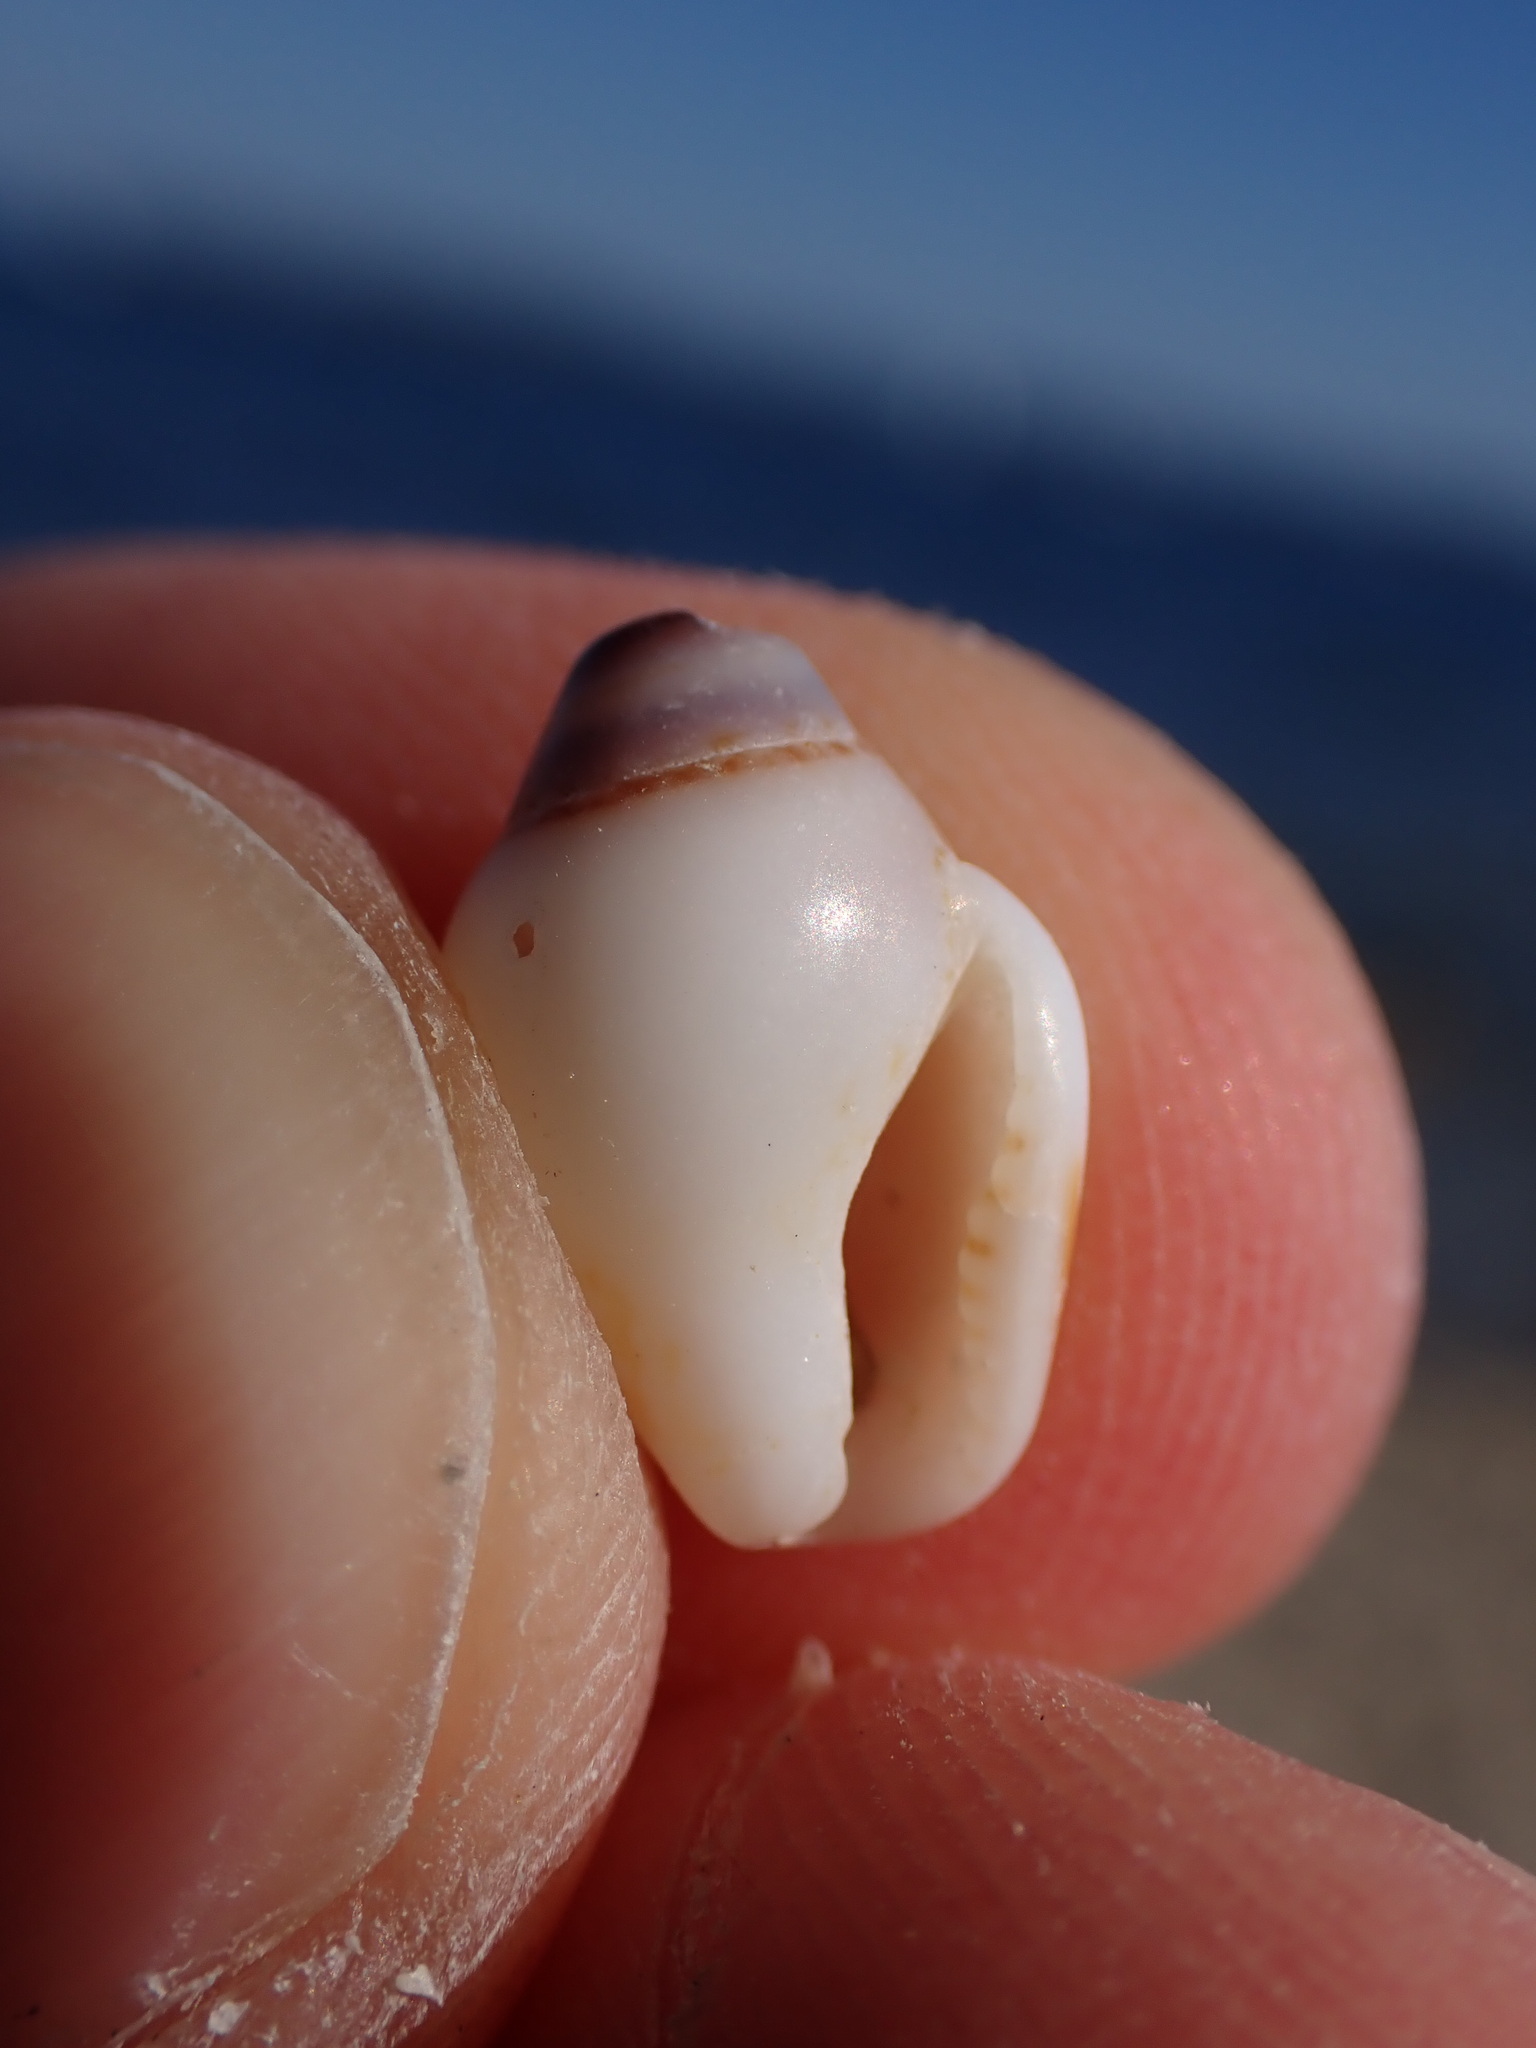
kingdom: Animalia
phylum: Mollusca
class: Gastropoda
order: Neogastropoda
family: Columbellidae
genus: Columbella
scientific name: Columbella rustica
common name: Rustic dove shell
